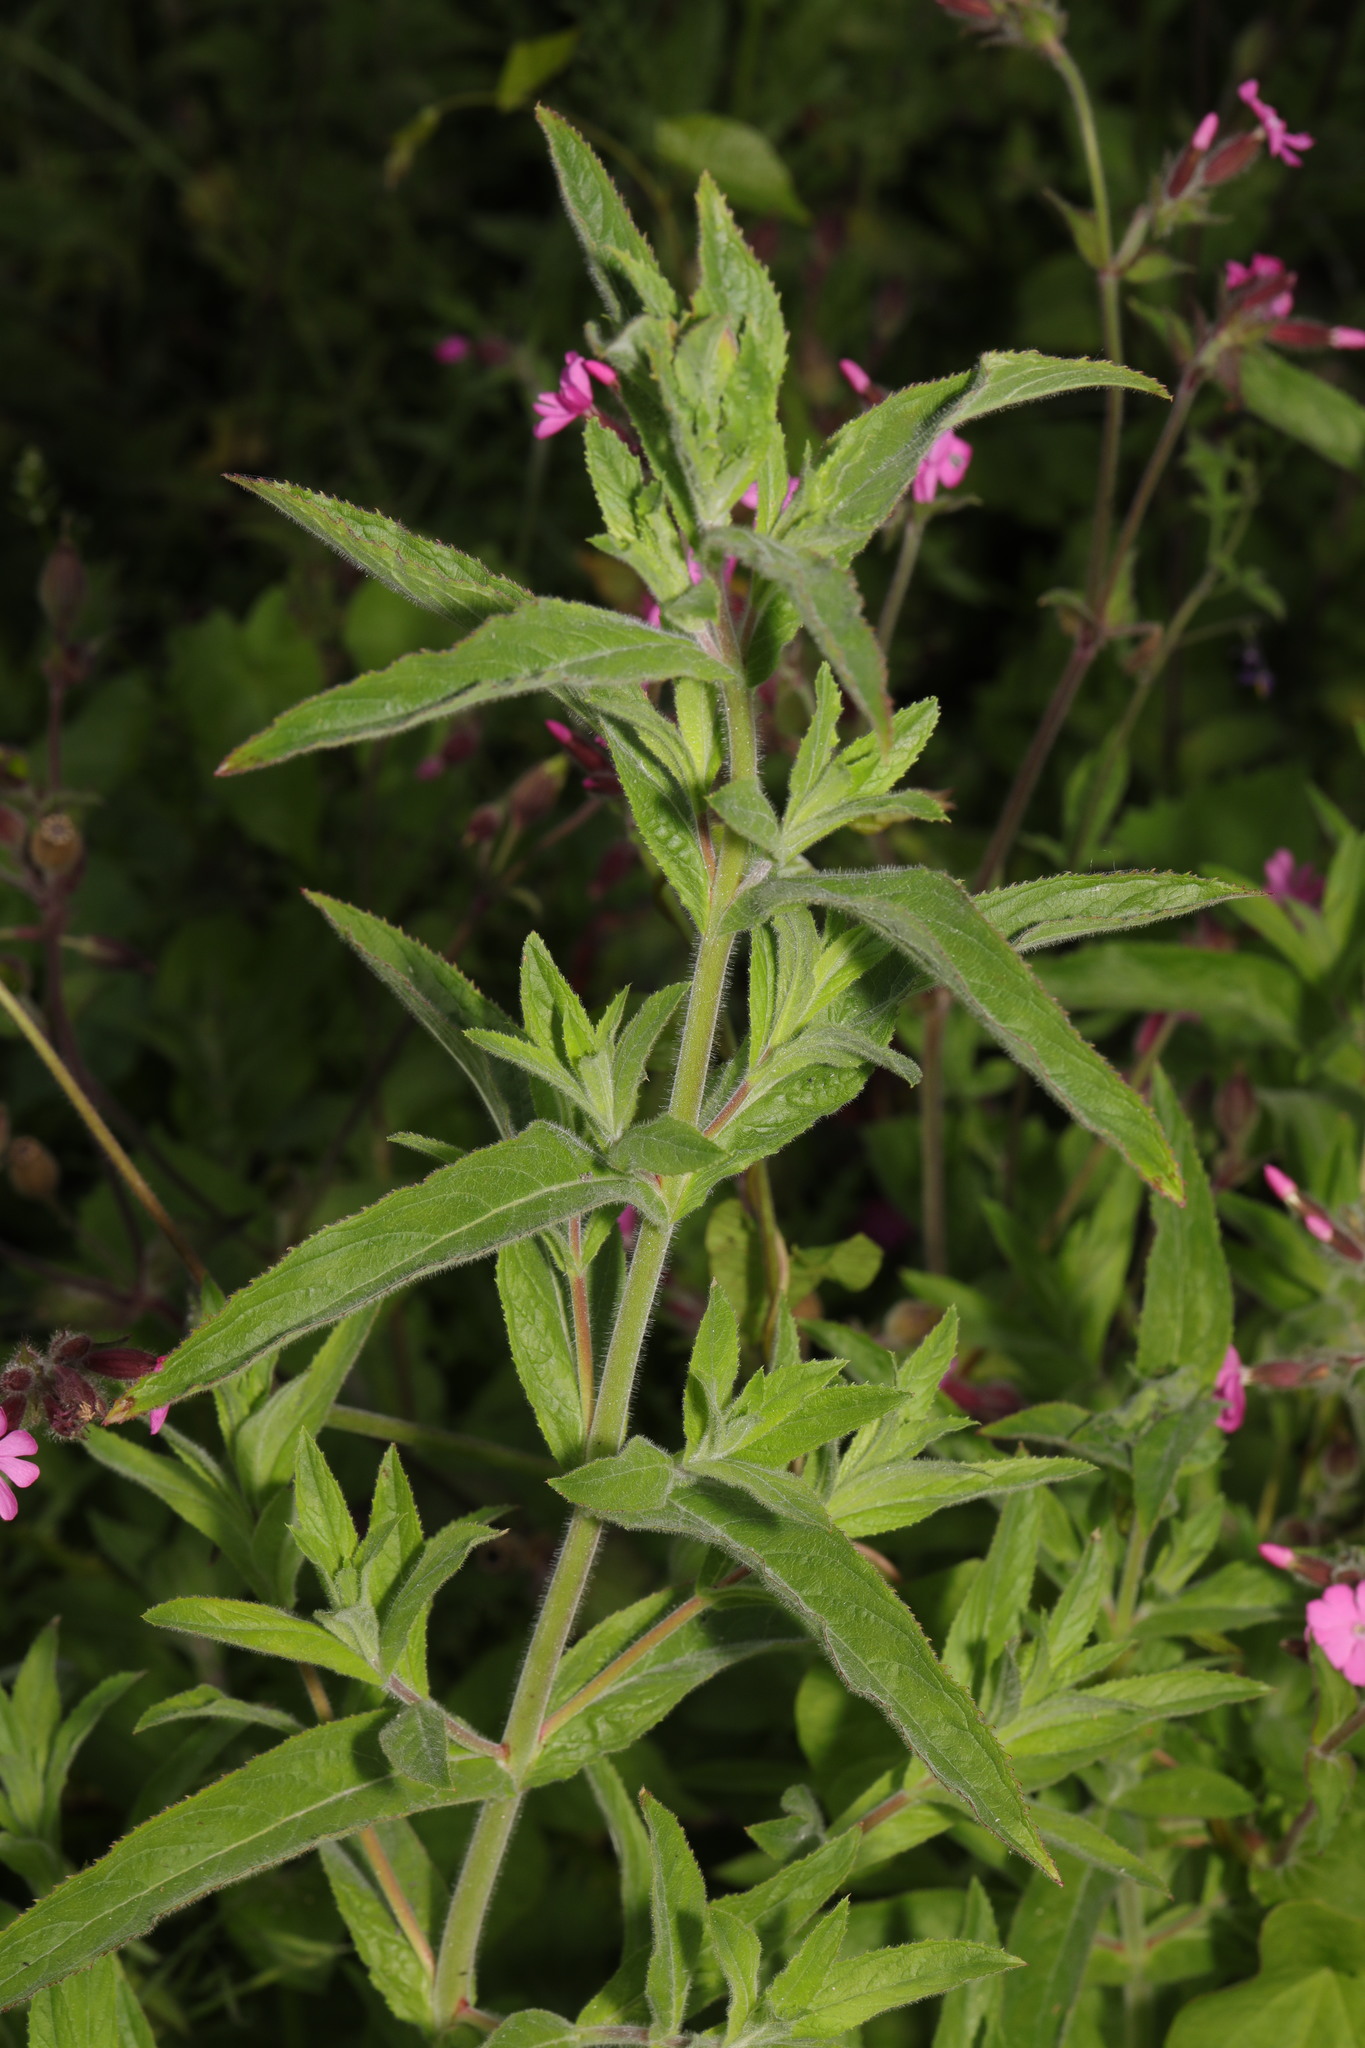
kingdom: Plantae
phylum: Tracheophyta
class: Magnoliopsida
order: Myrtales
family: Onagraceae
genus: Epilobium
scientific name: Epilobium hirsutum
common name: Great willowherb
